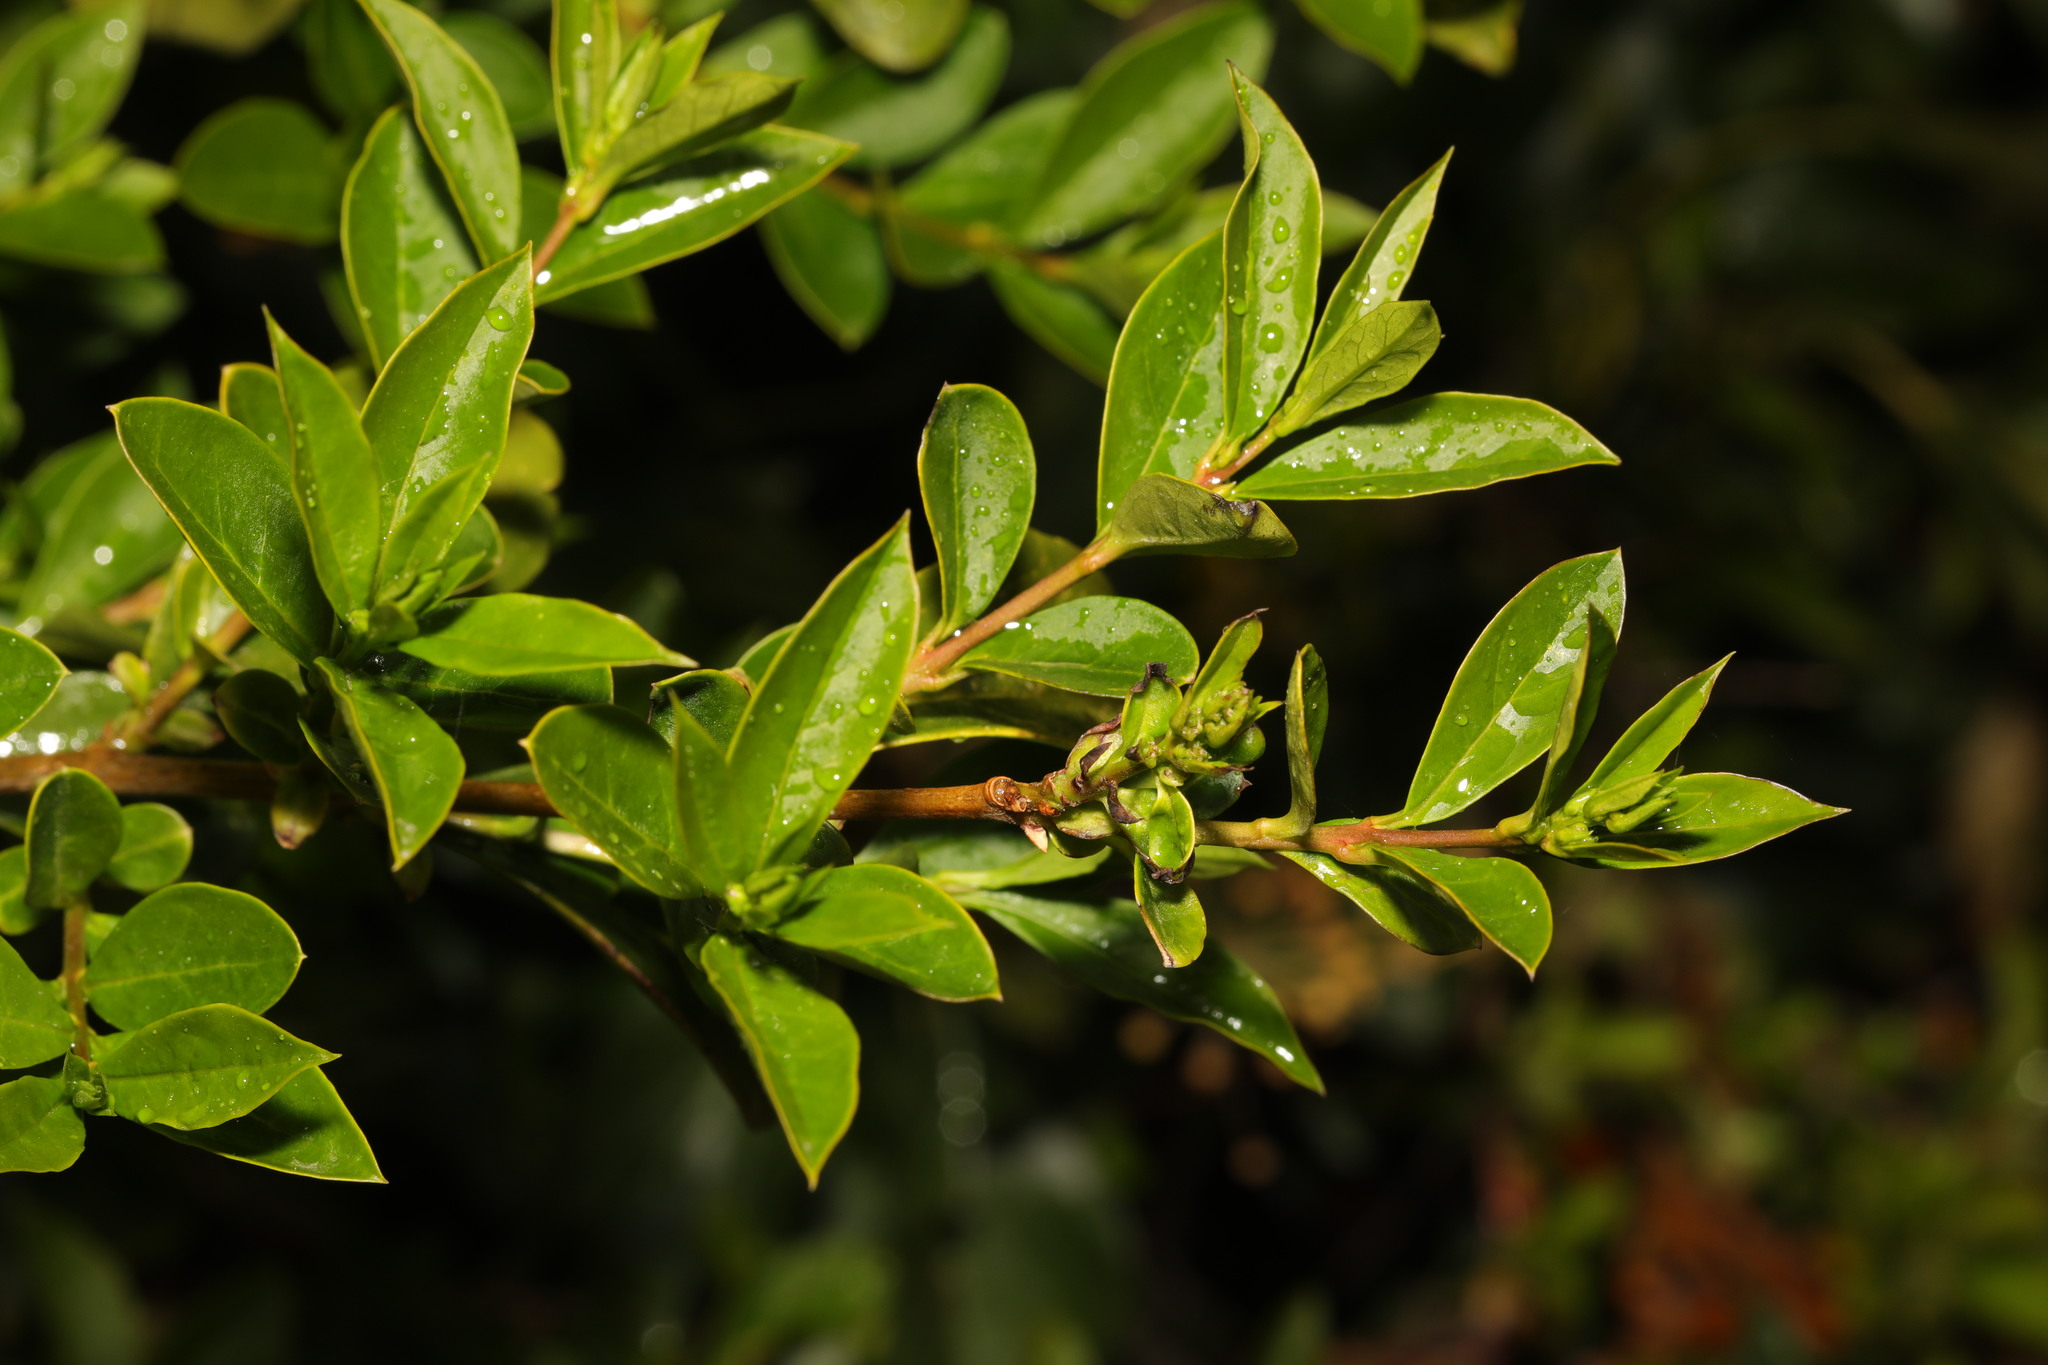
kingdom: Plantae
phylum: Tracheophyta
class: Magnoliopsida
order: Lamiales
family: Oleaceae
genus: Ligustrum
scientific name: Ligustrum vulgare
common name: Wild privet
